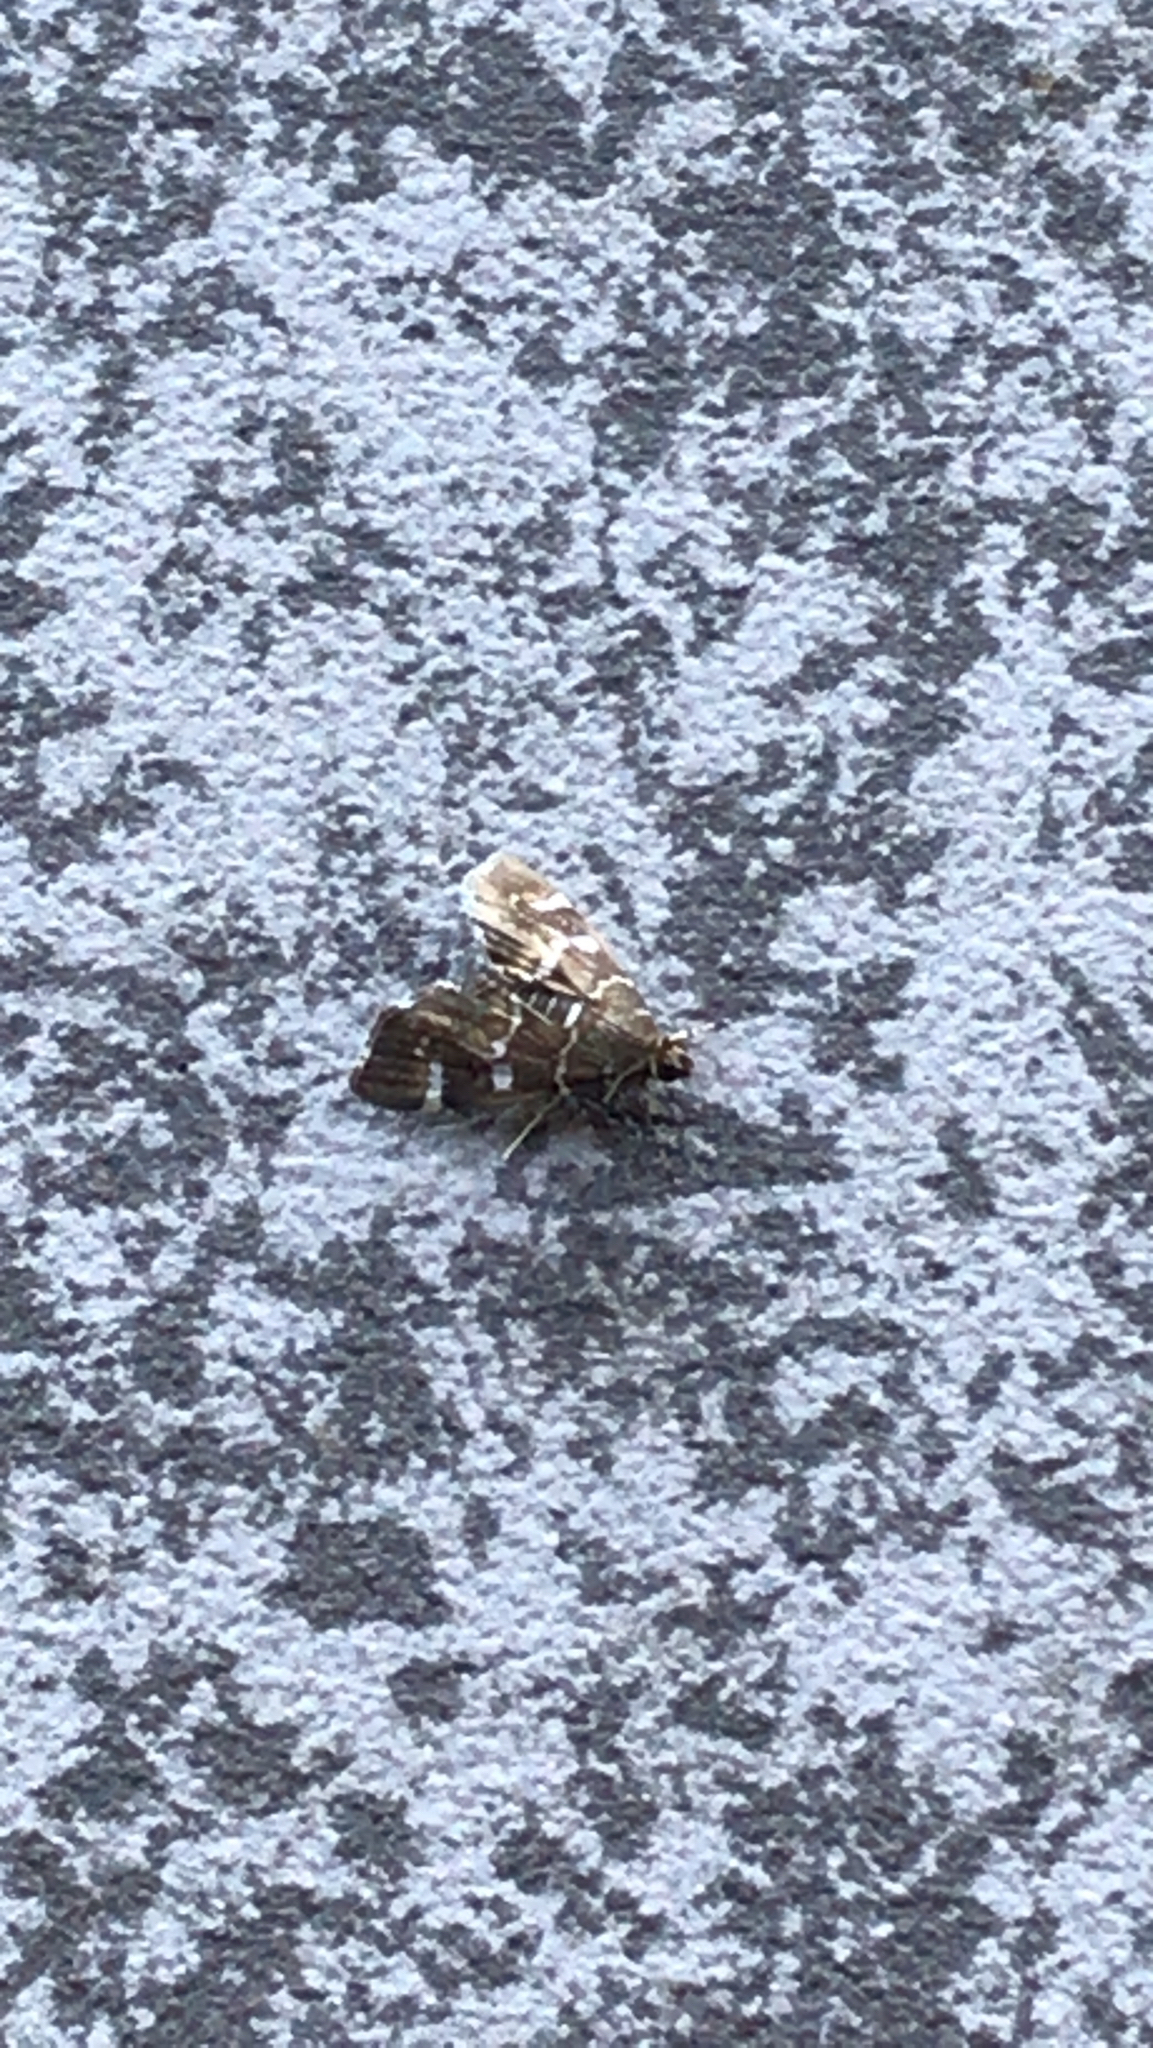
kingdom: Animalia
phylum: Arthropoda
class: Insecta
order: Lepidoptera
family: Crambidae
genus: Hymenia
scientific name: Hymenia perspectalis
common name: Spotted beet webworm
